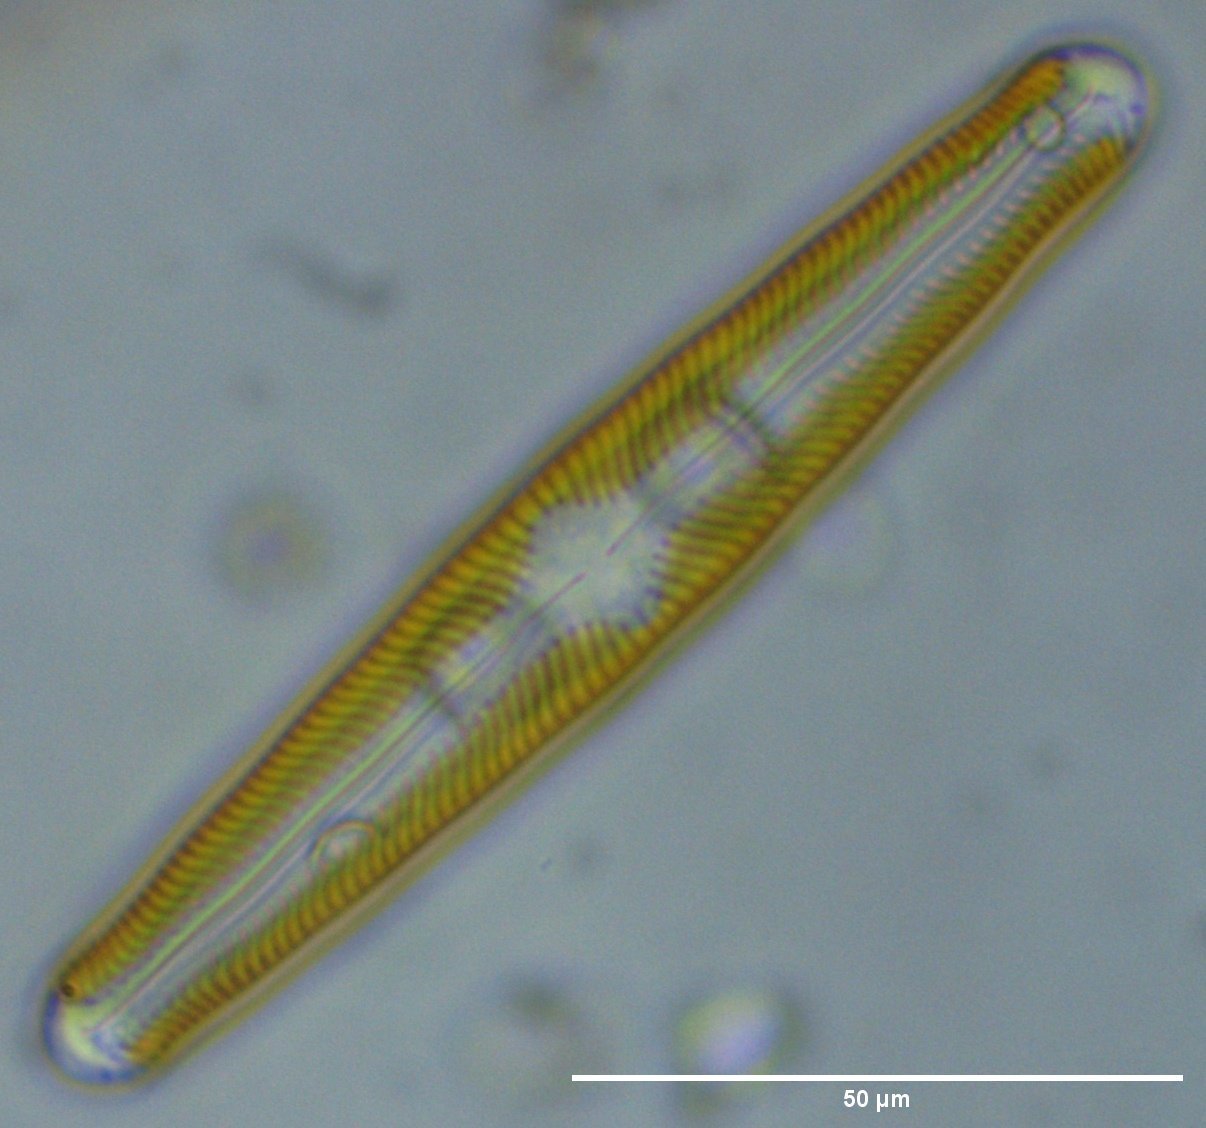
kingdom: Chromista
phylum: Ochrophyta
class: Bacillariophyceae
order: Naviculales
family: Naviculaceae
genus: Navicula
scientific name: Navicula oblonga
